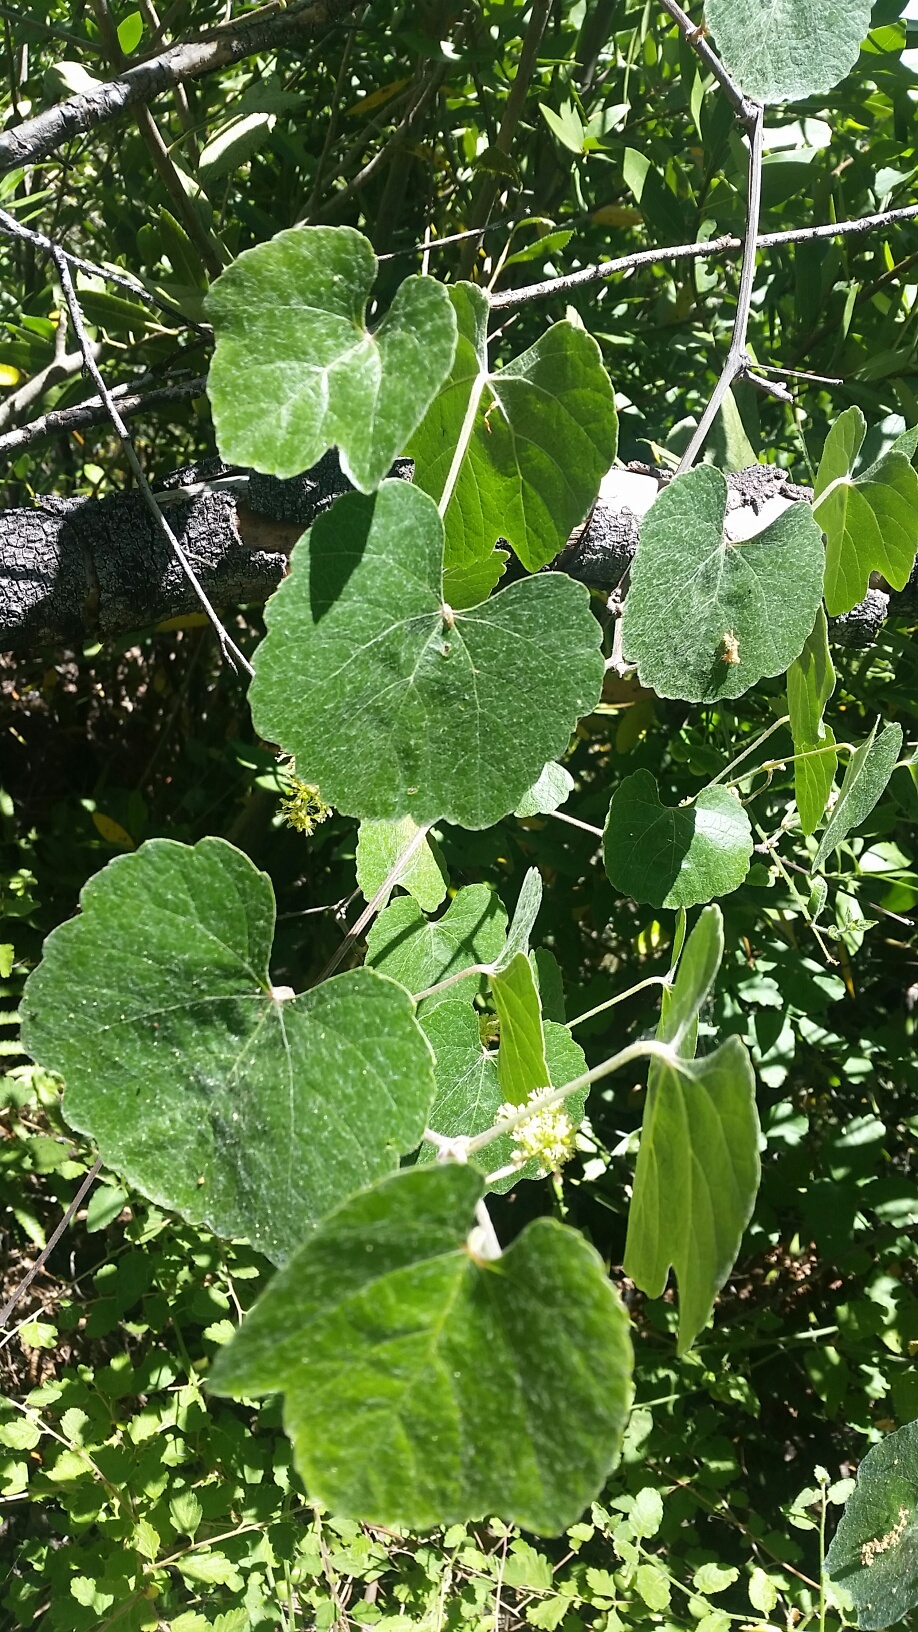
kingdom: Plantae
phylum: Tracheophyta
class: Magnoliopsida
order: Vitales
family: Vitaceae
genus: Vitis
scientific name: Vitis californica
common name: California wild grape
